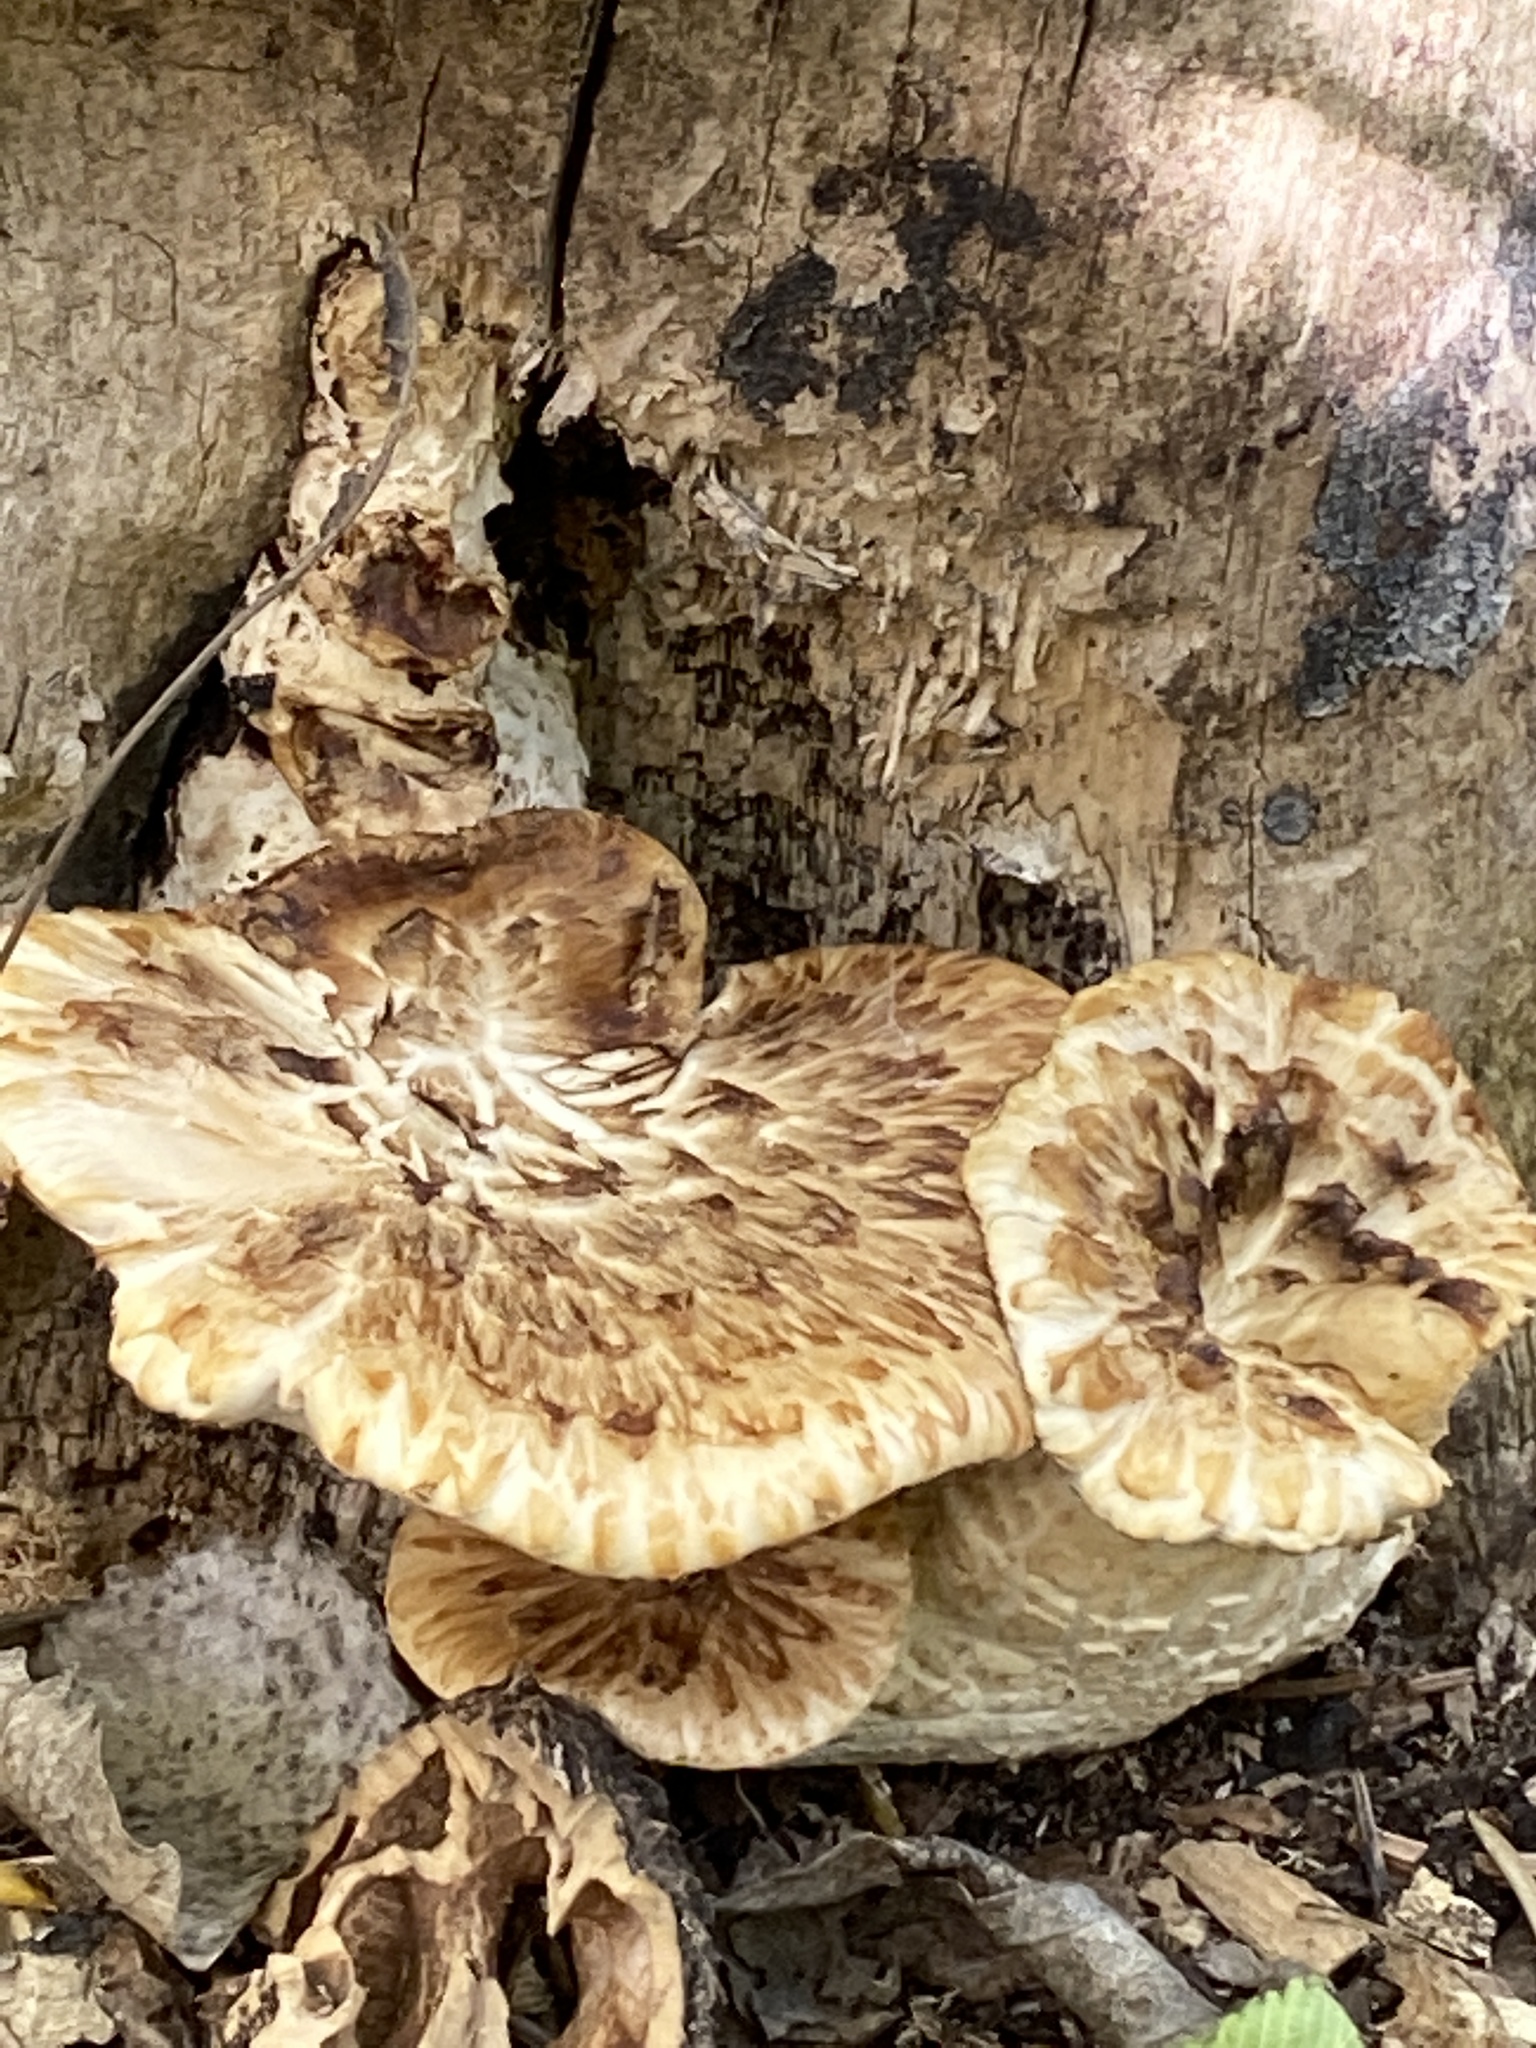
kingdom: Fungi
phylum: Basidiomycota
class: Agaricomycetes
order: Polyporales
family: Polyporaceae
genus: Cerioporus
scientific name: Cerioporus squamosus
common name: Dryad's saddle
